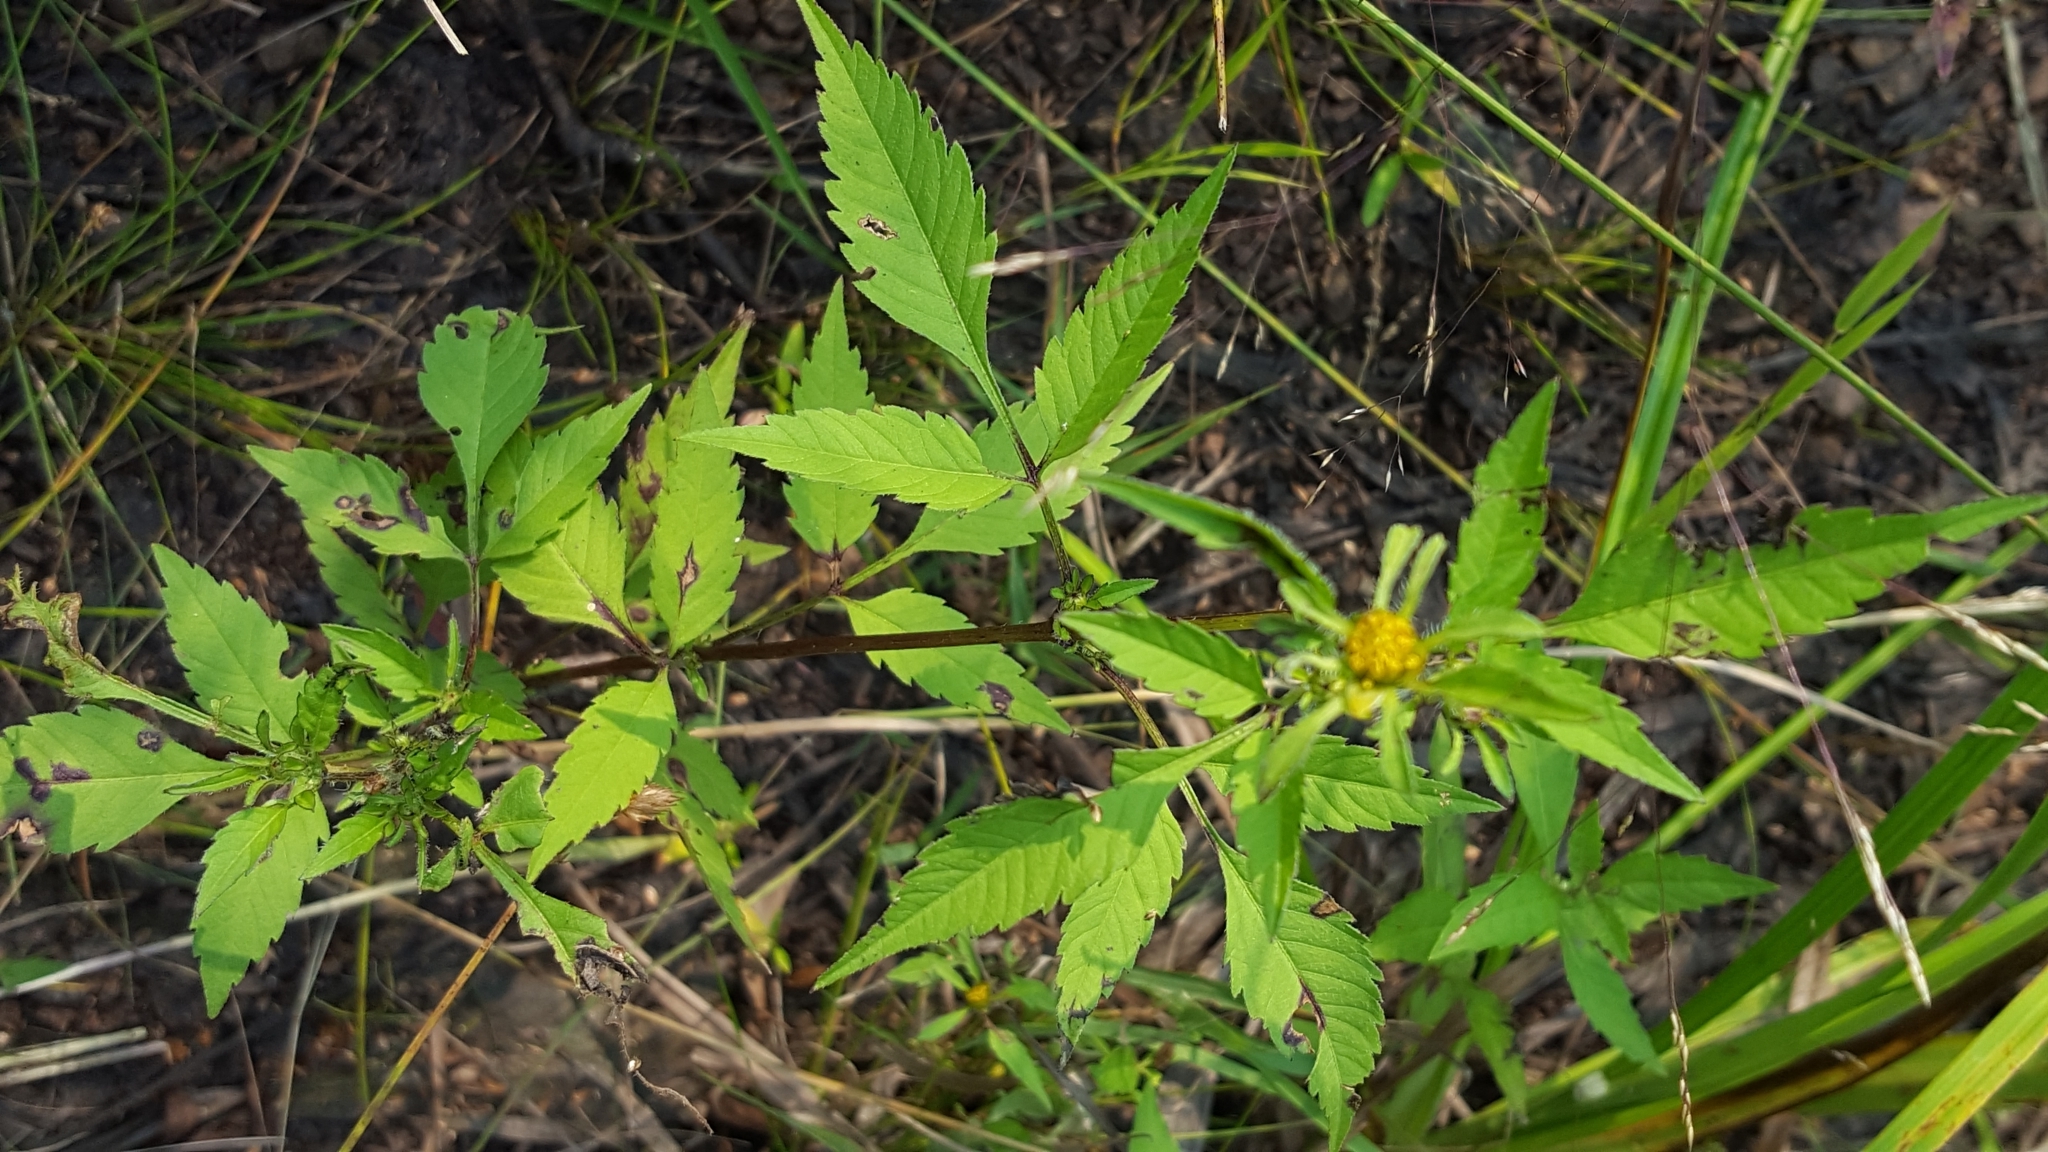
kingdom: Plantae
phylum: Tracheophyta
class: Magnoliopsida
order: Asterales
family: Asteraceae
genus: Bidens
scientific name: Bidens frondosa
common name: Beggarticks
